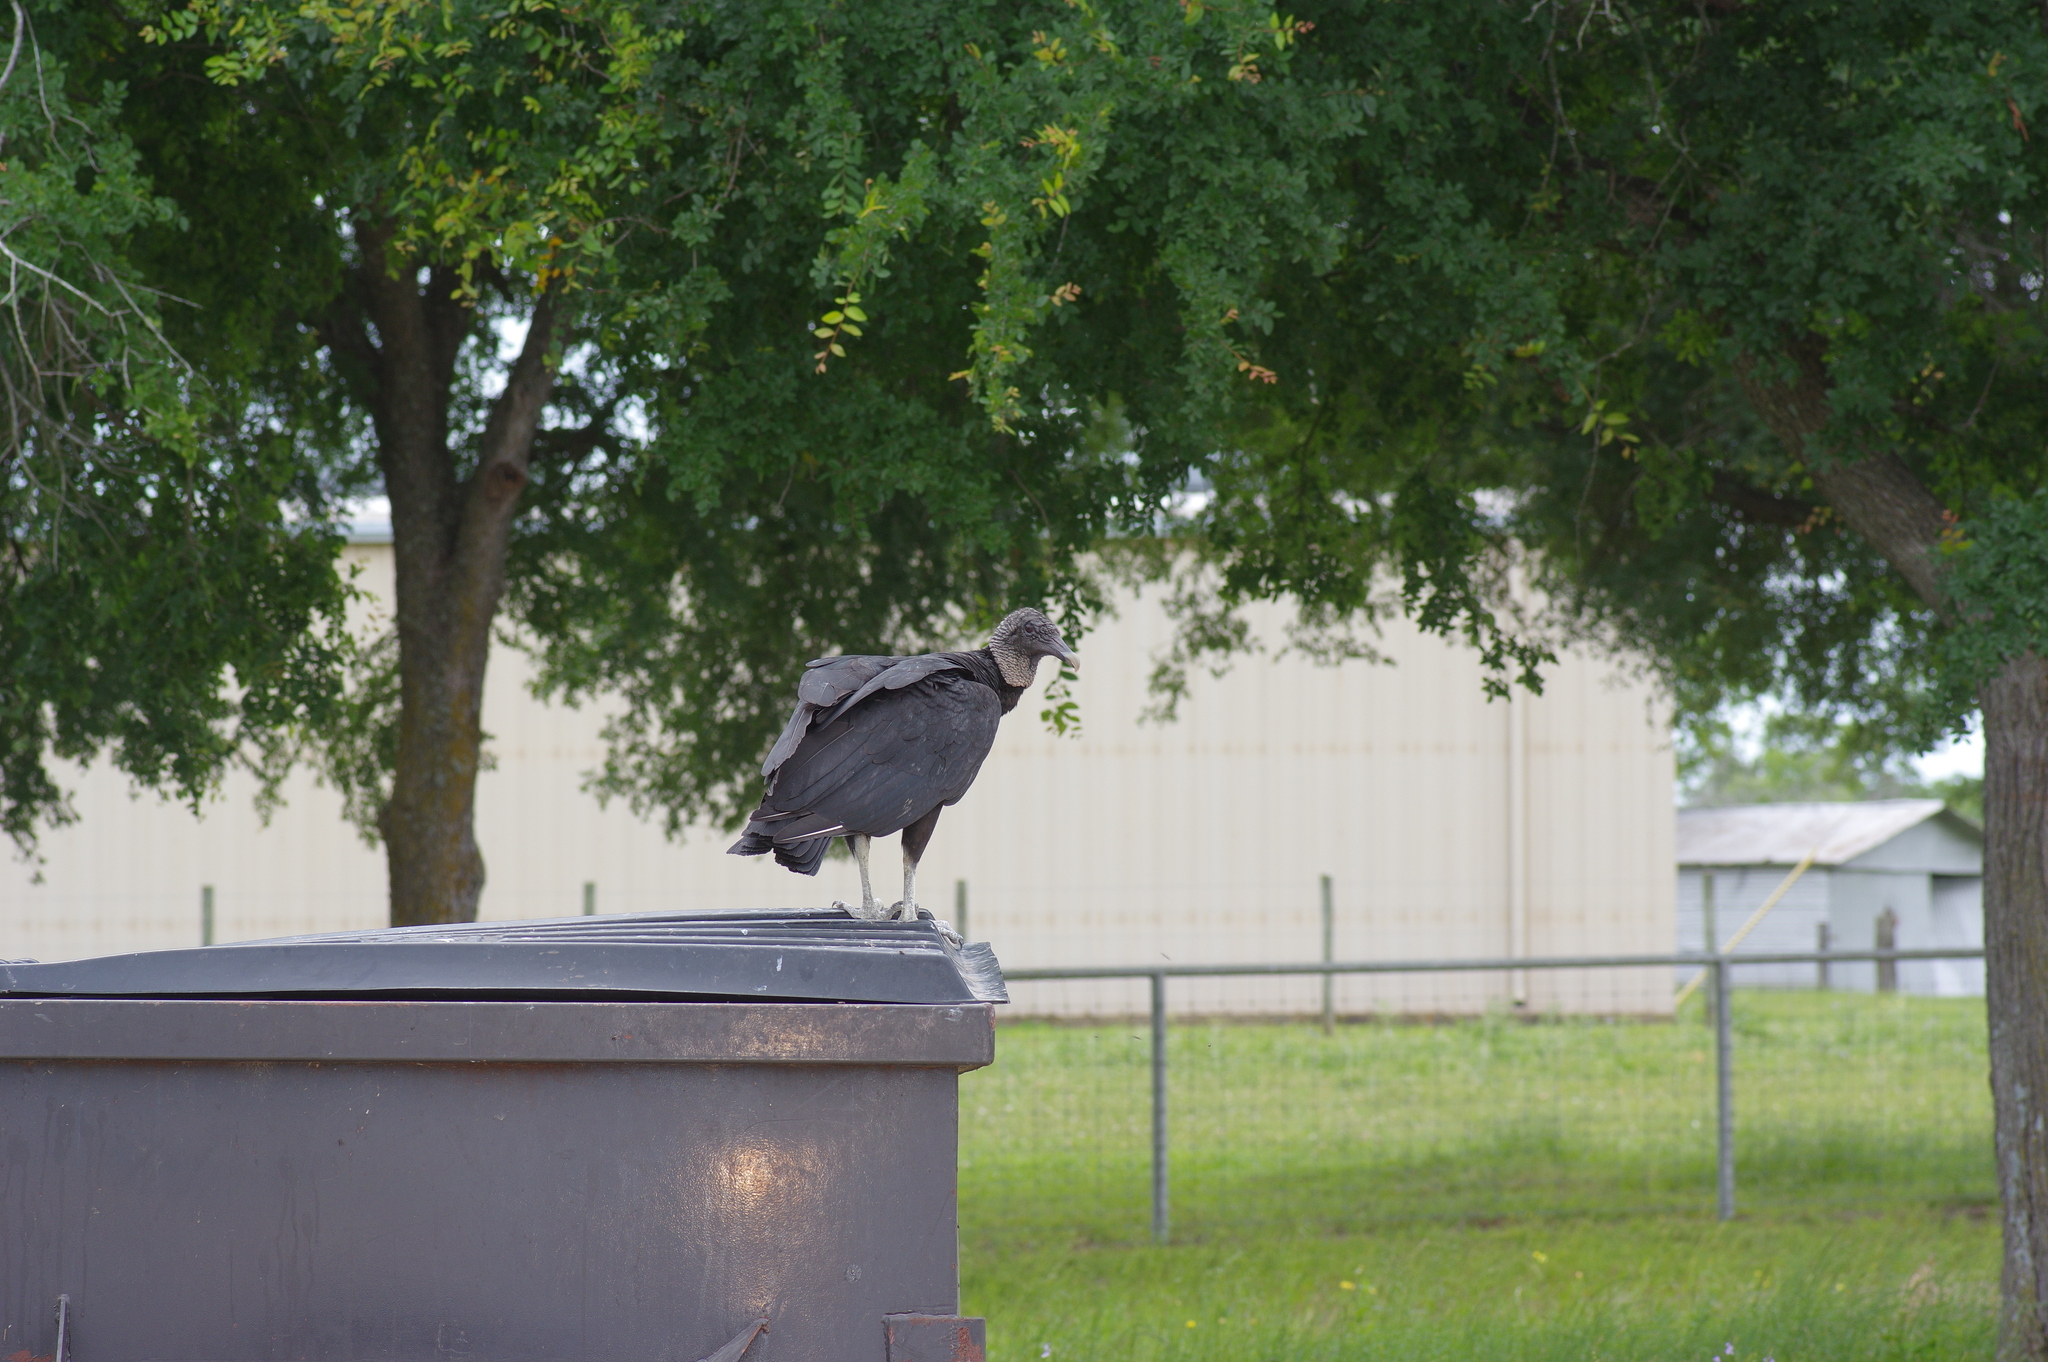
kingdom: Animalia
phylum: Chordata
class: Aves
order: Accipitriformes
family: Cathartidae
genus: Coragyps
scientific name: Coragyps atratus
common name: Black vulture
